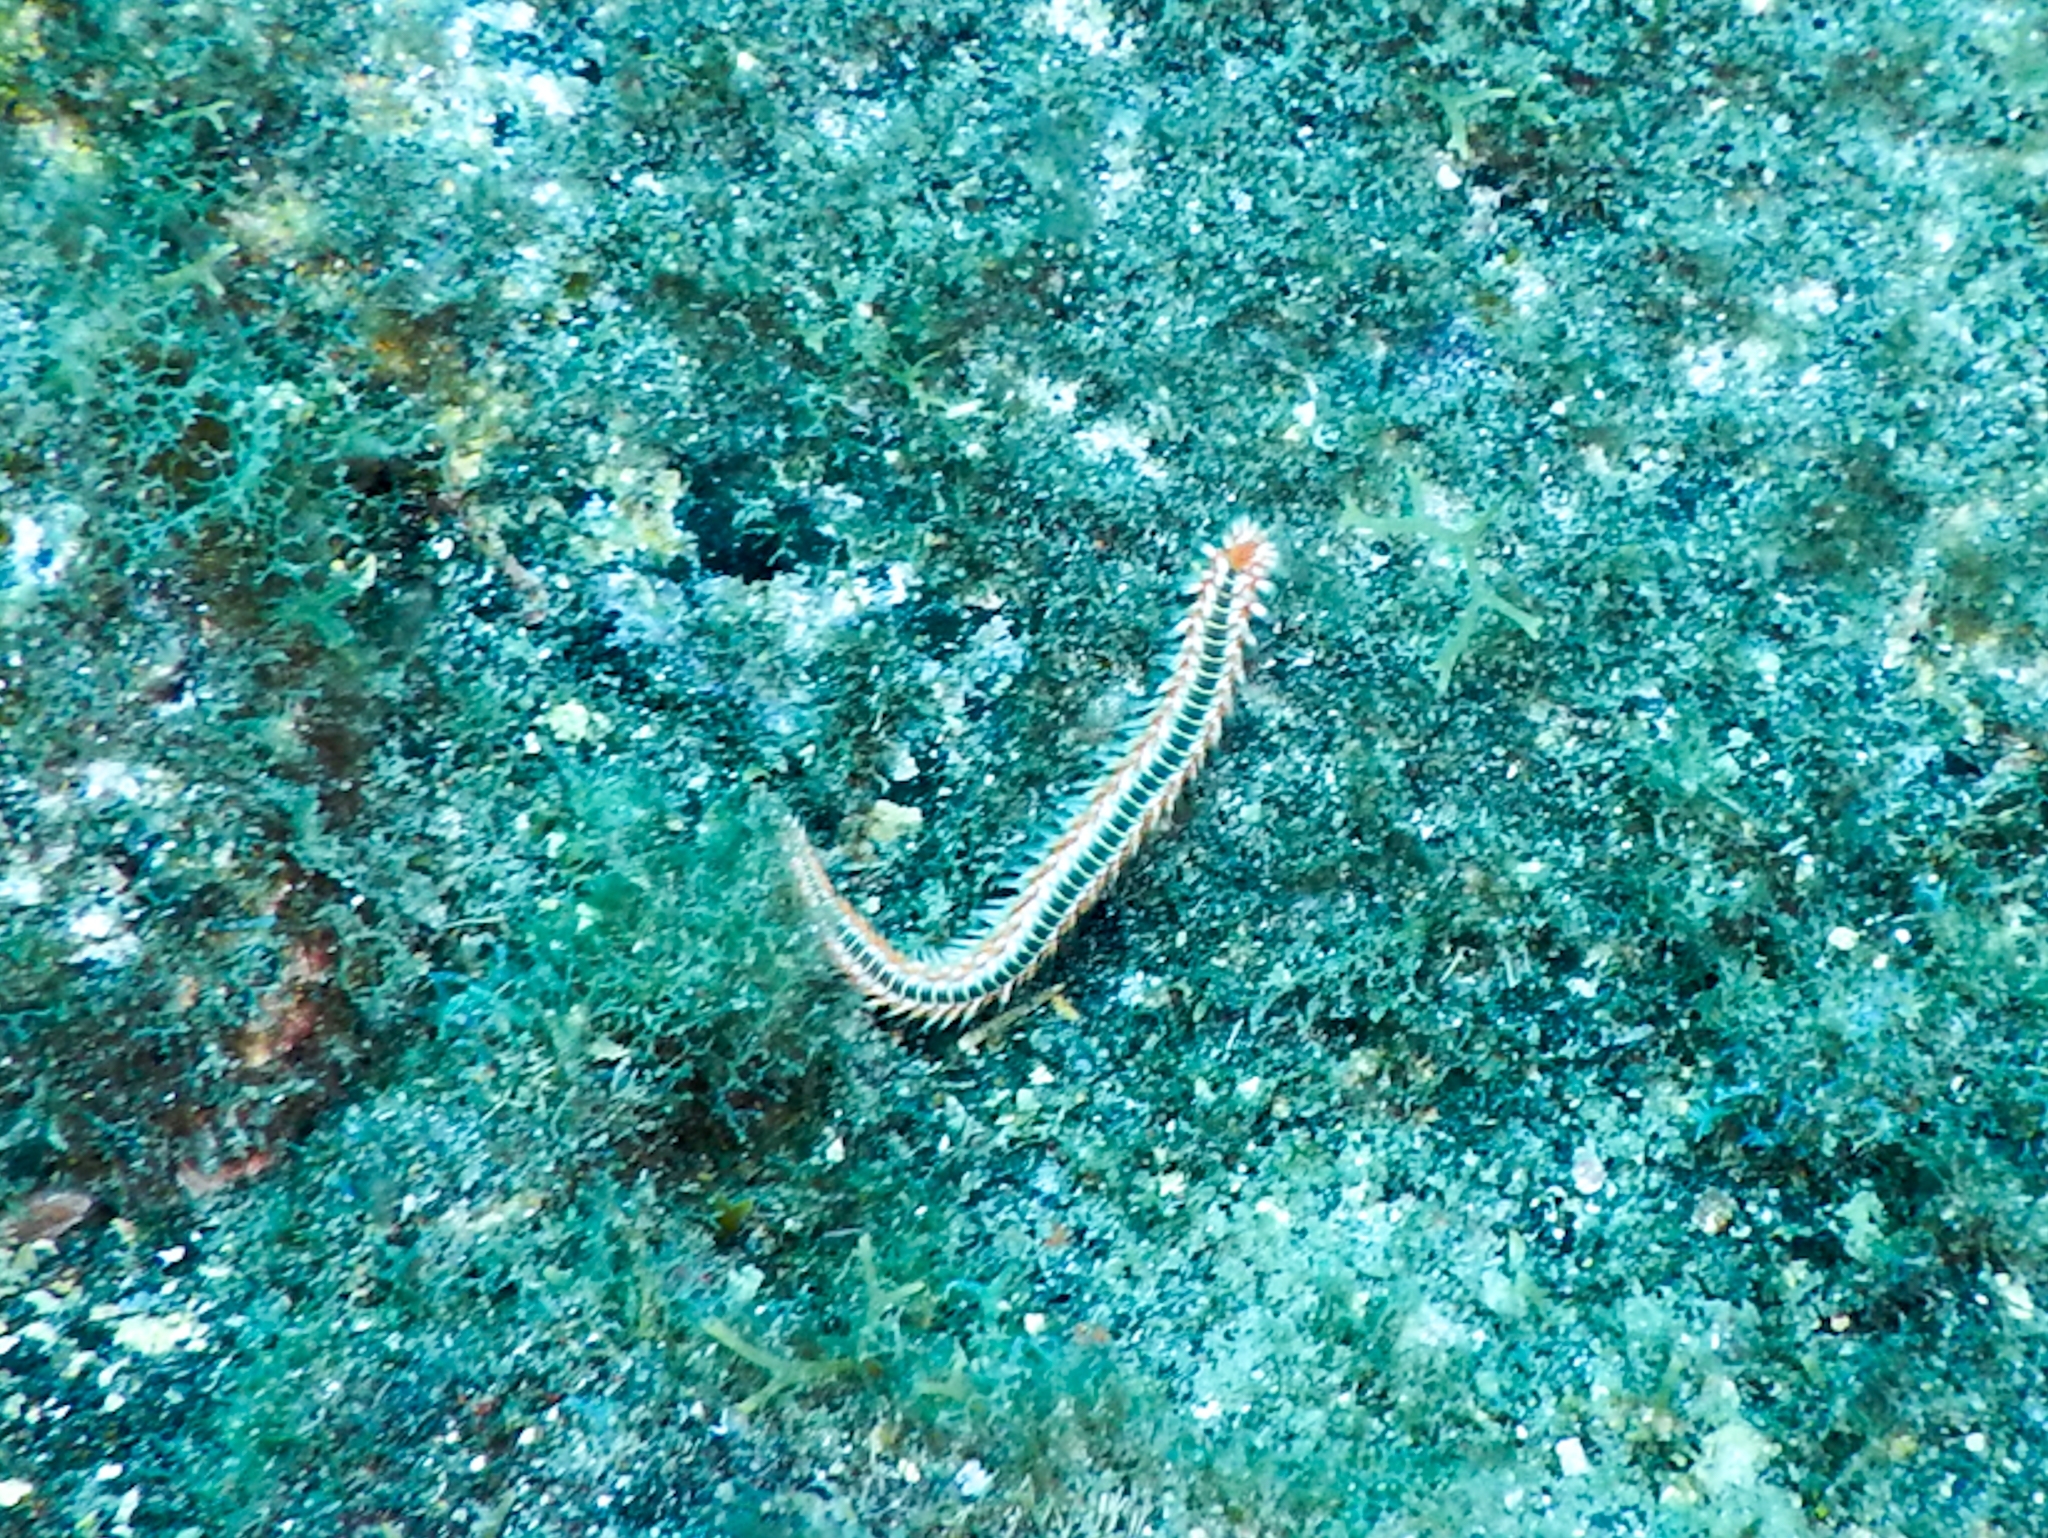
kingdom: Animalia
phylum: Annelida
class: Polychaeta
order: Amphinomida
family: Amphinomidae
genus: Hermodice
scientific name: Hermodice carunculata
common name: Bearded fireworm
